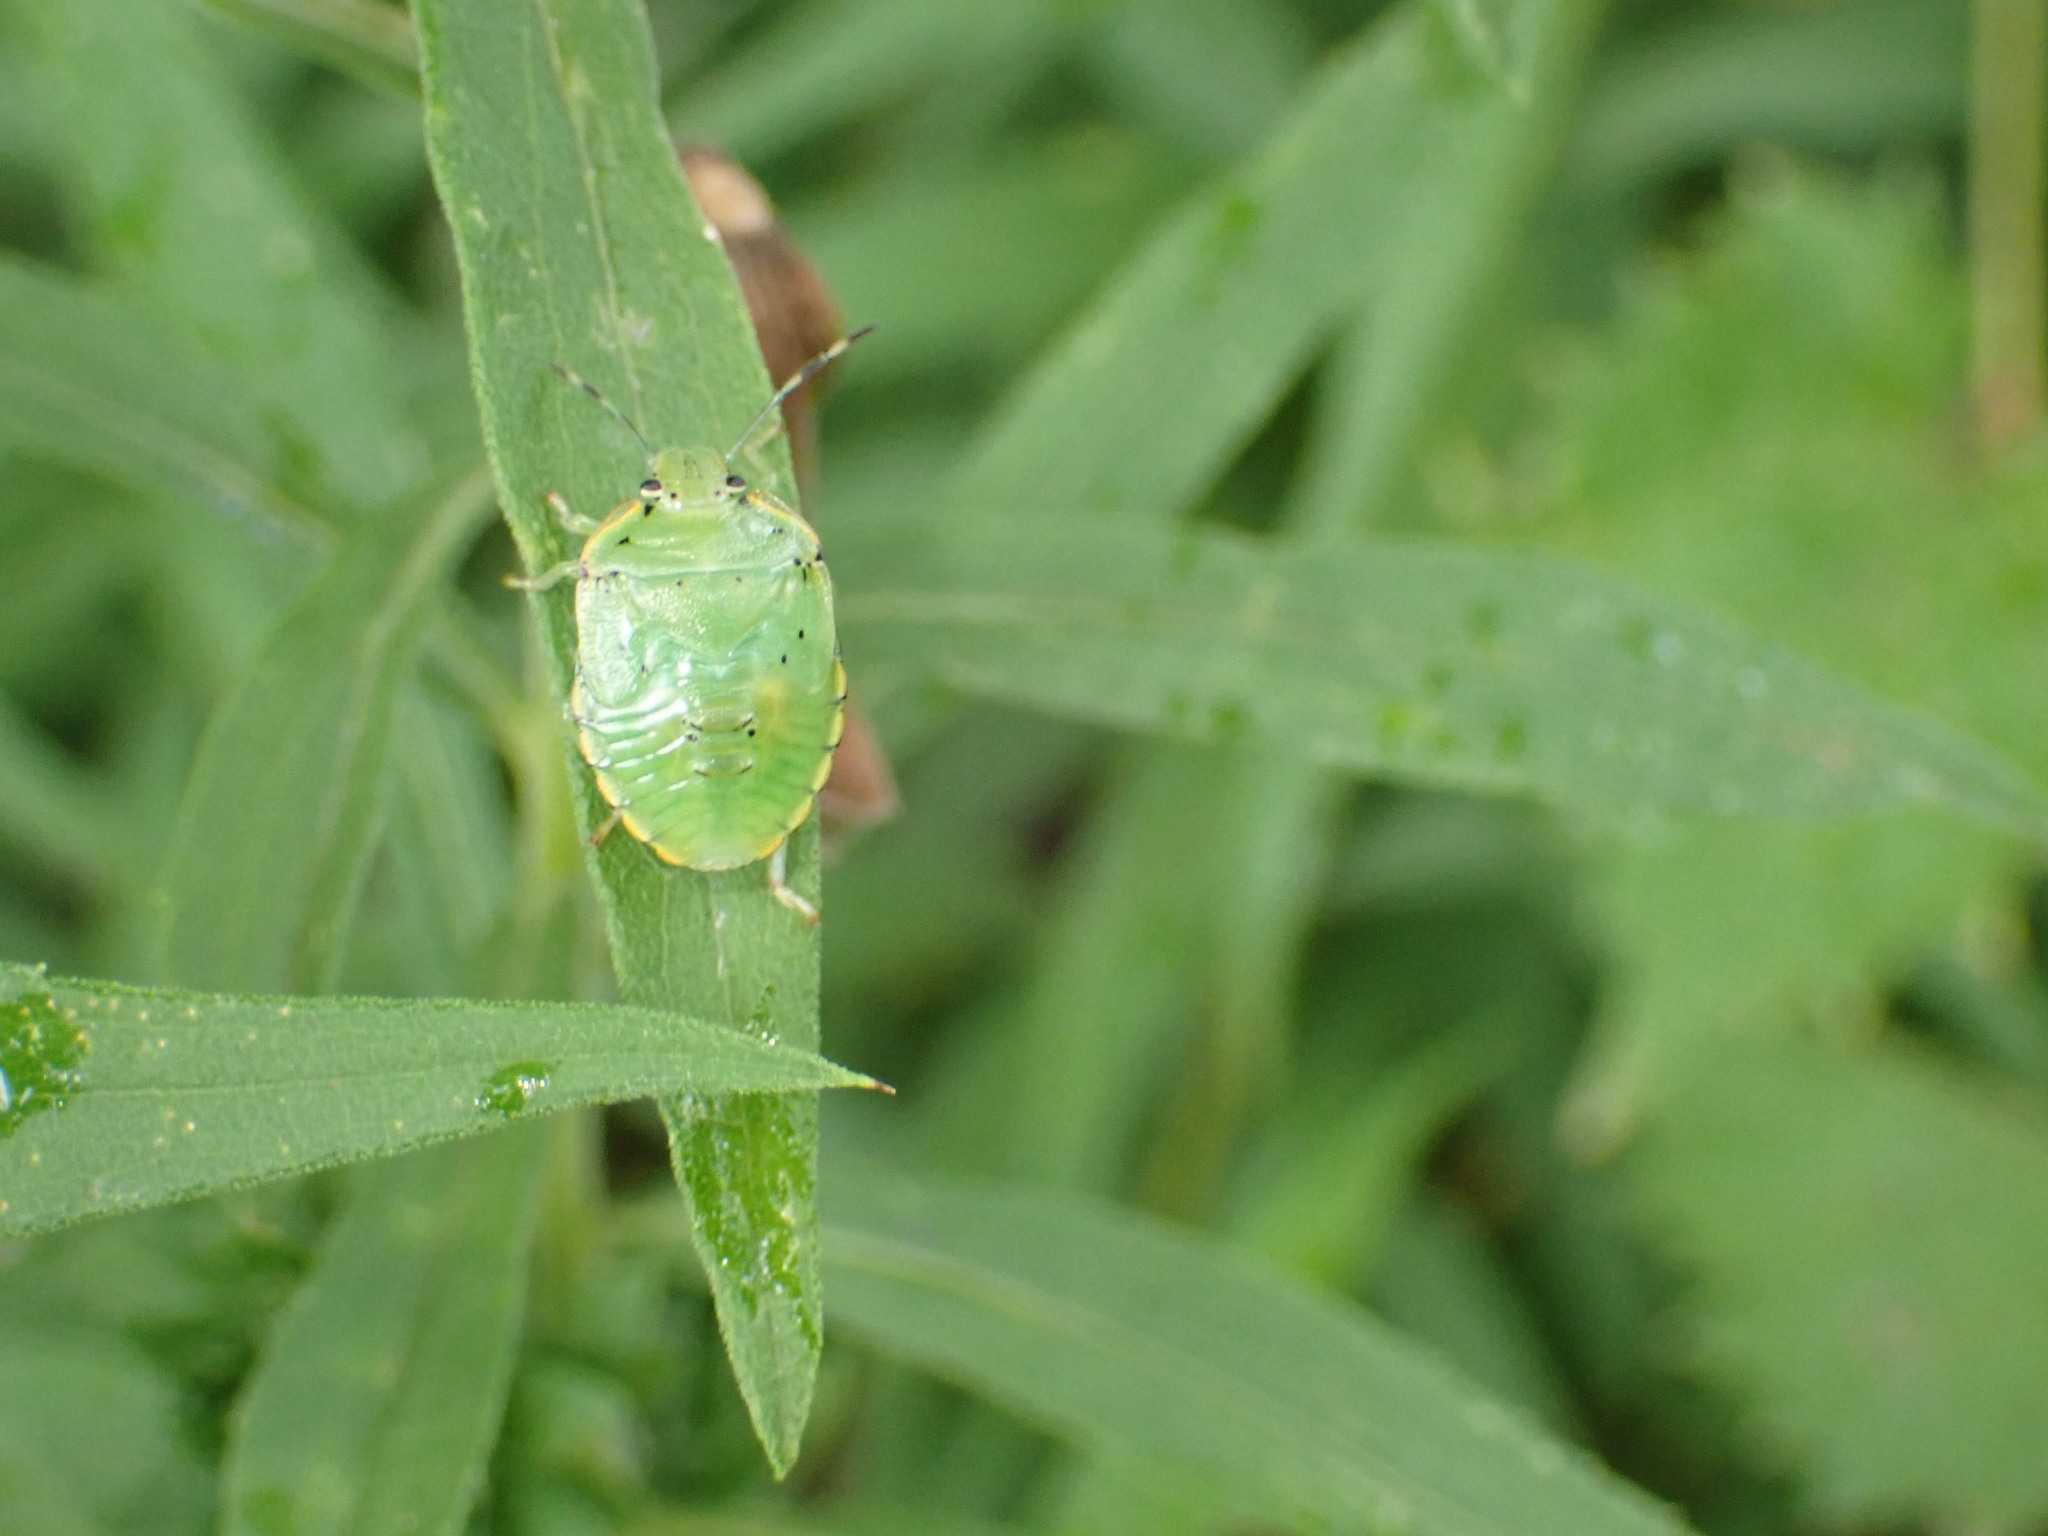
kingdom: Animalia
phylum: Arthropoda
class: Insecta
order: Hemiptera
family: Pentatomidae
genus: Chinavia
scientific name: Chinavia hilaris
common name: Green stink bug
